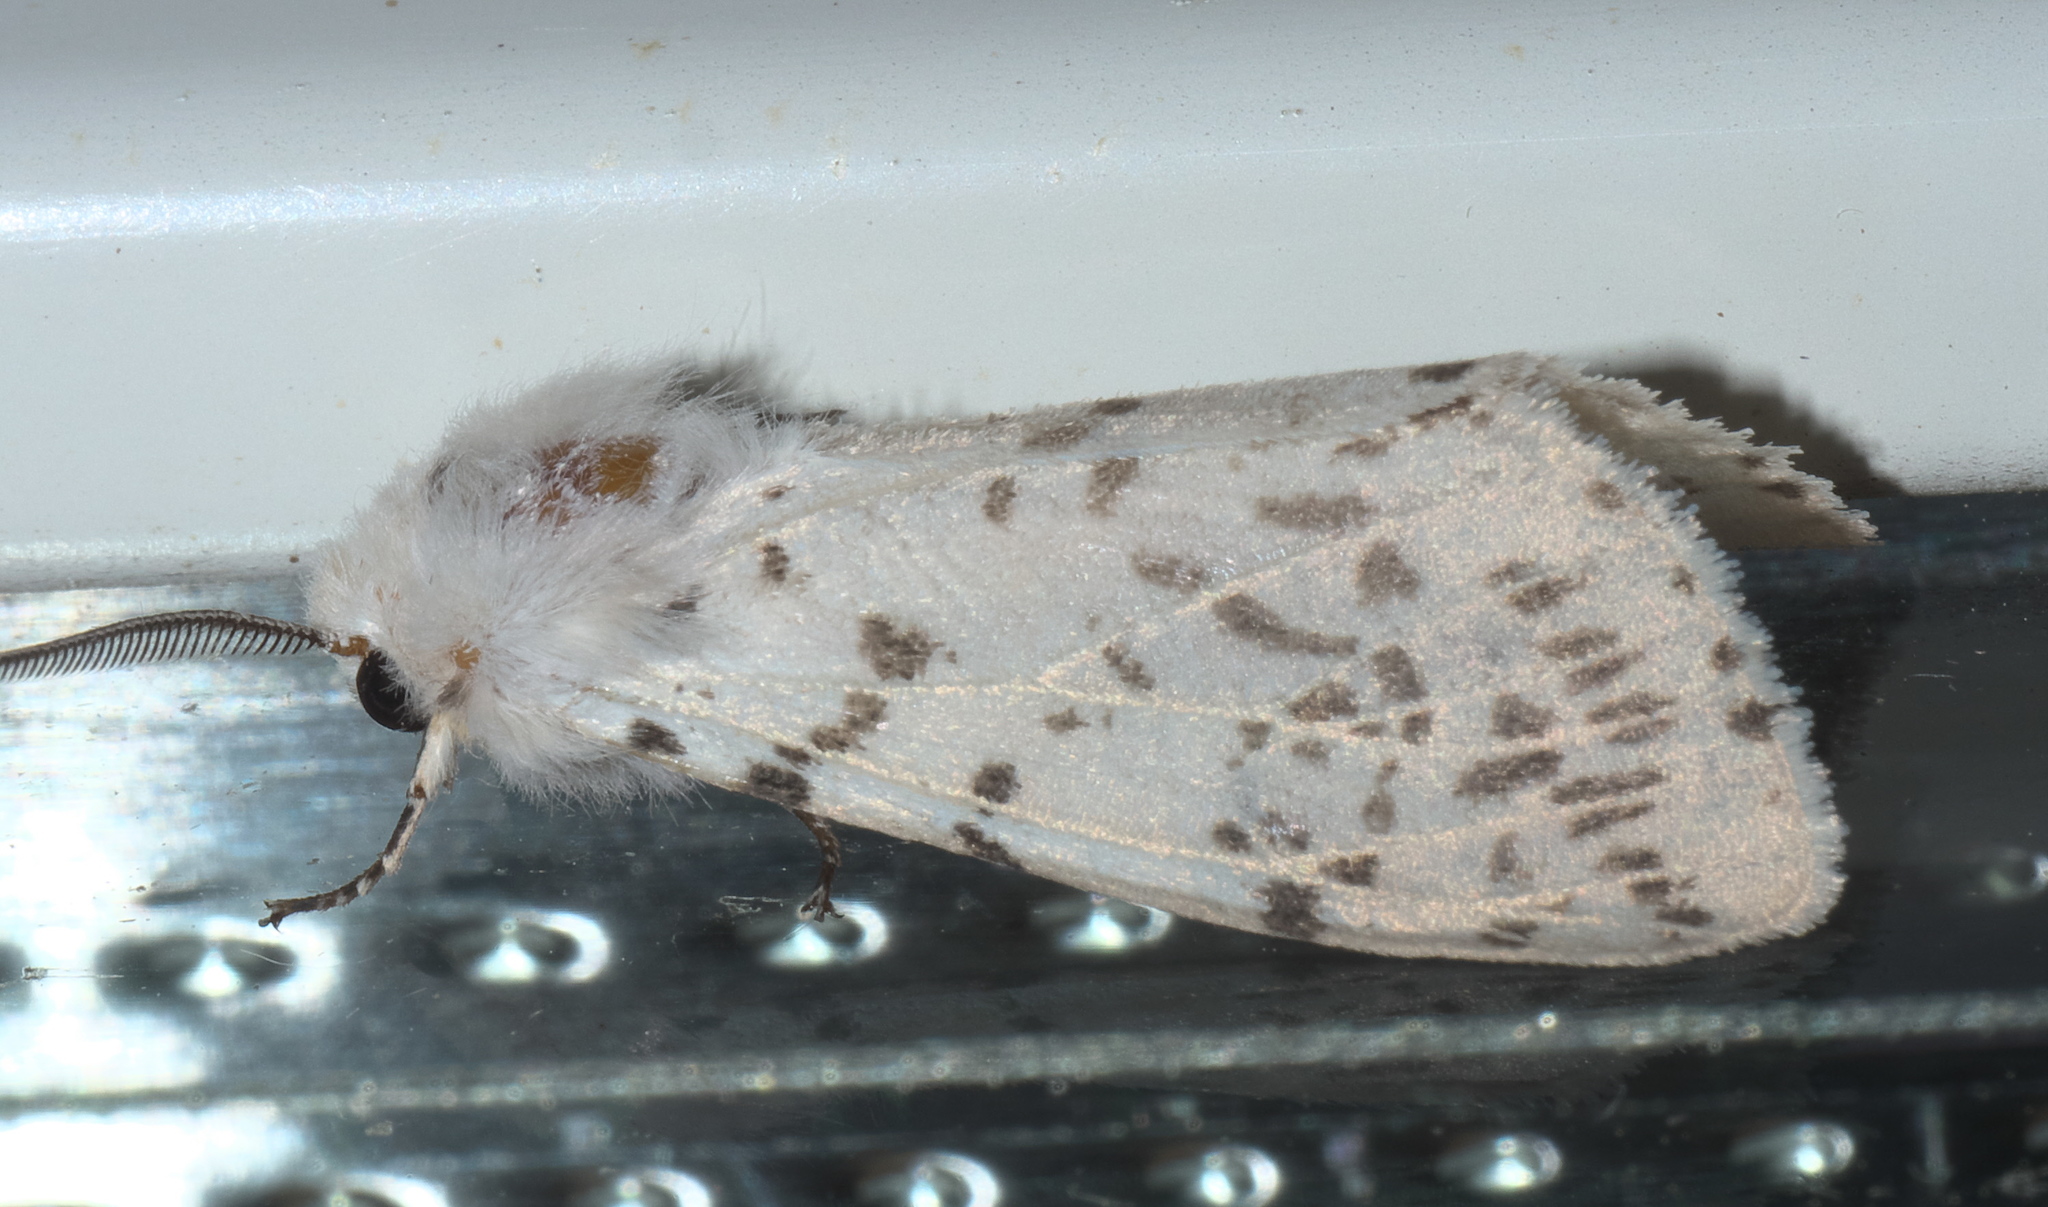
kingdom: Animalia
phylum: Arthropoda
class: Insecta
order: Lepidoptera
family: Erebidae
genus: Hyphantria
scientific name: Hyphantria cunea
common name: American white moth
